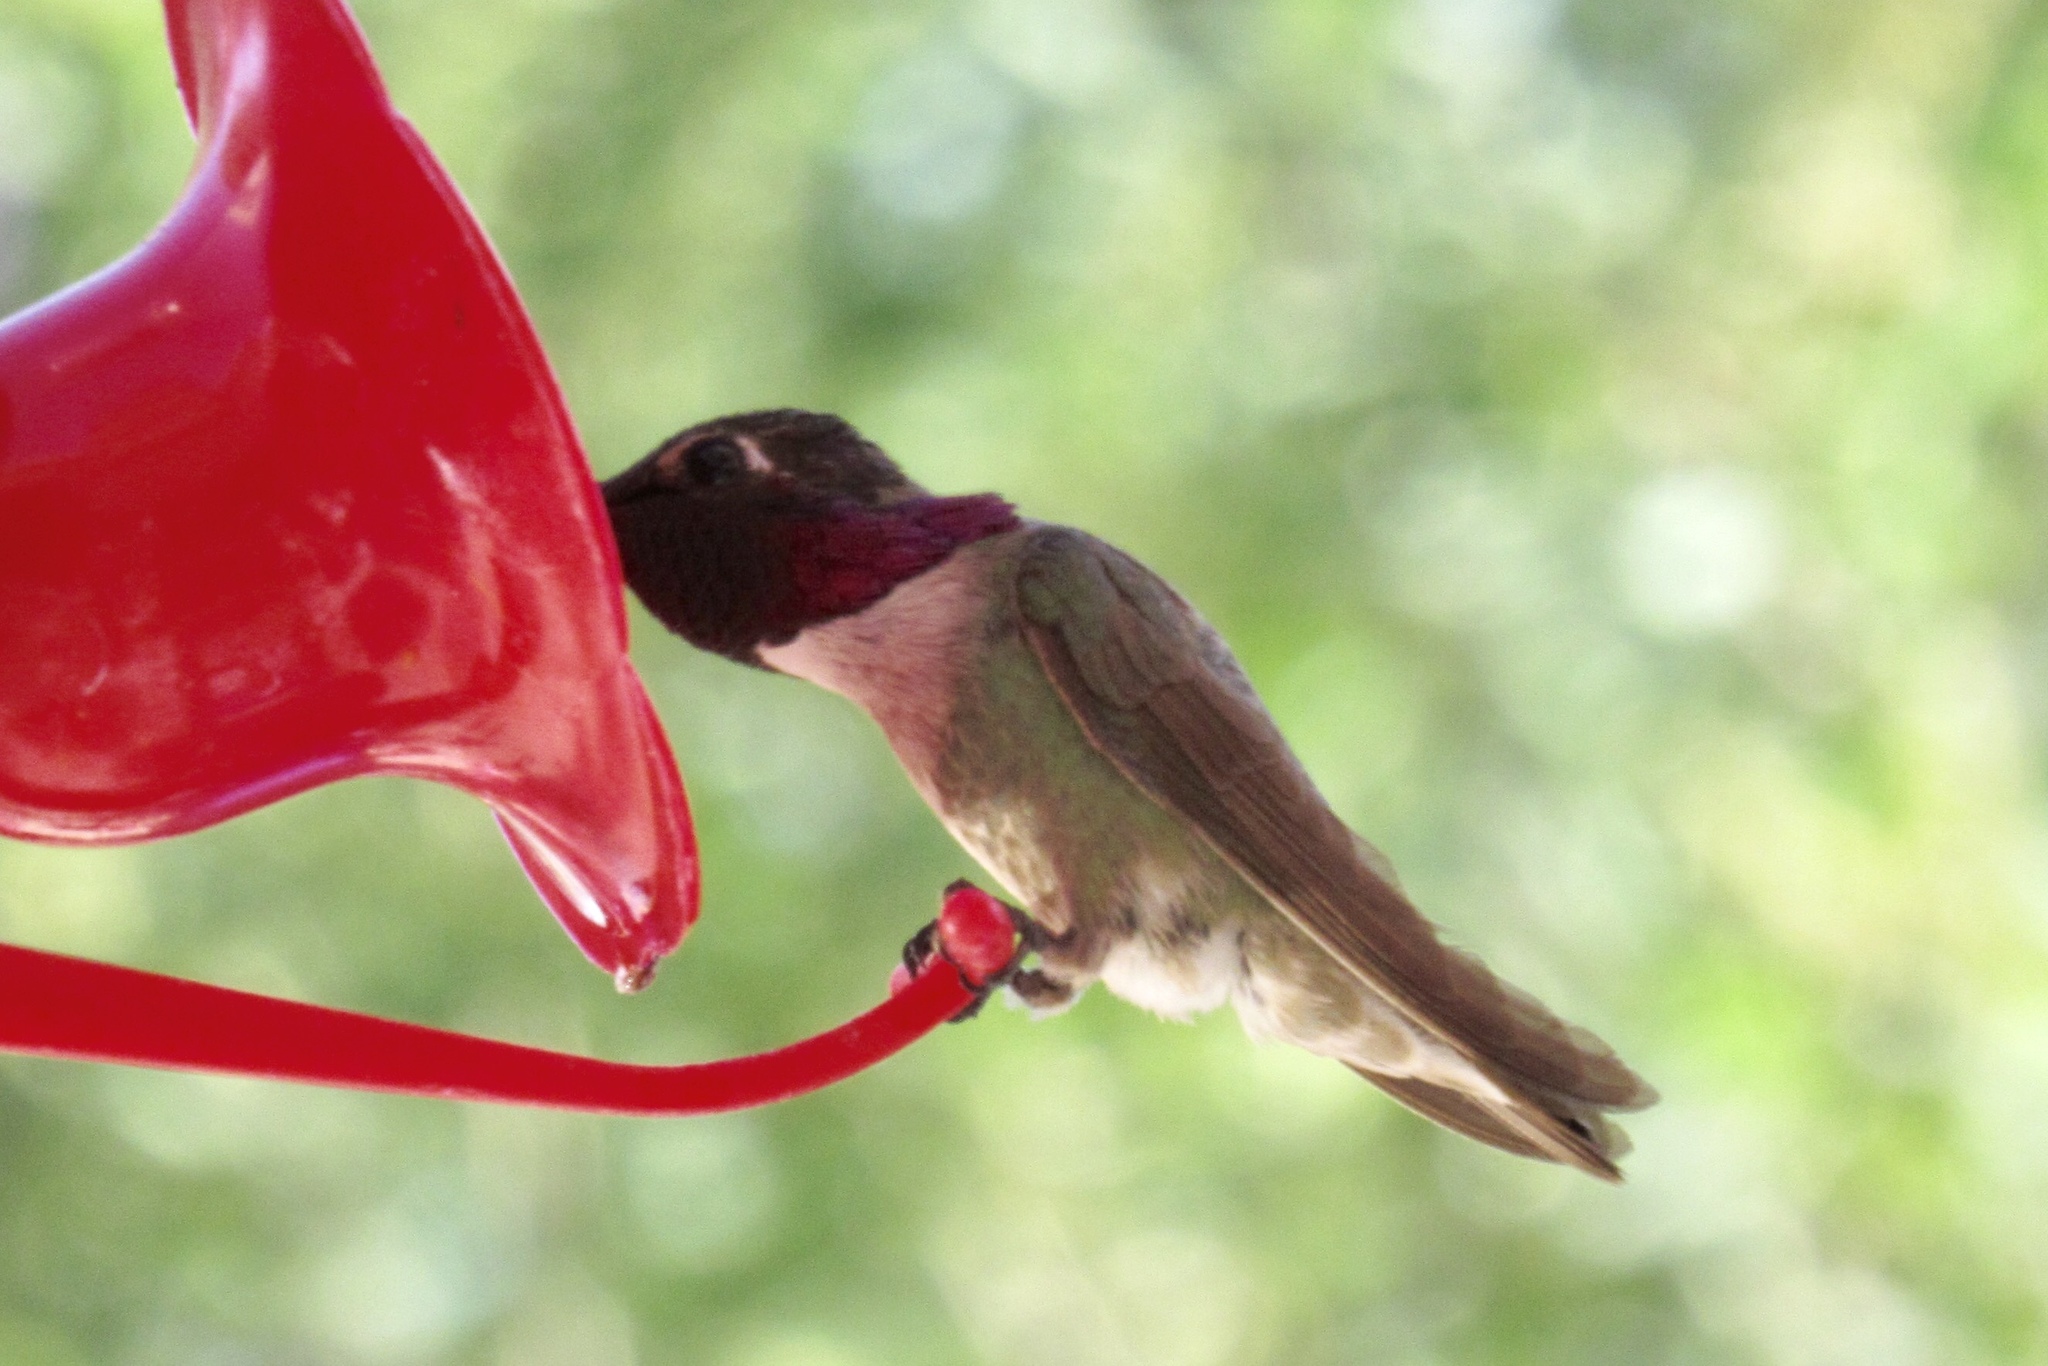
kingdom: Animalia
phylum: Chordata
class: Aves
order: Apodiformes
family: Trochilidae
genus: Calypte
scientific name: Calypte costae
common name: Costa's hummingbird
